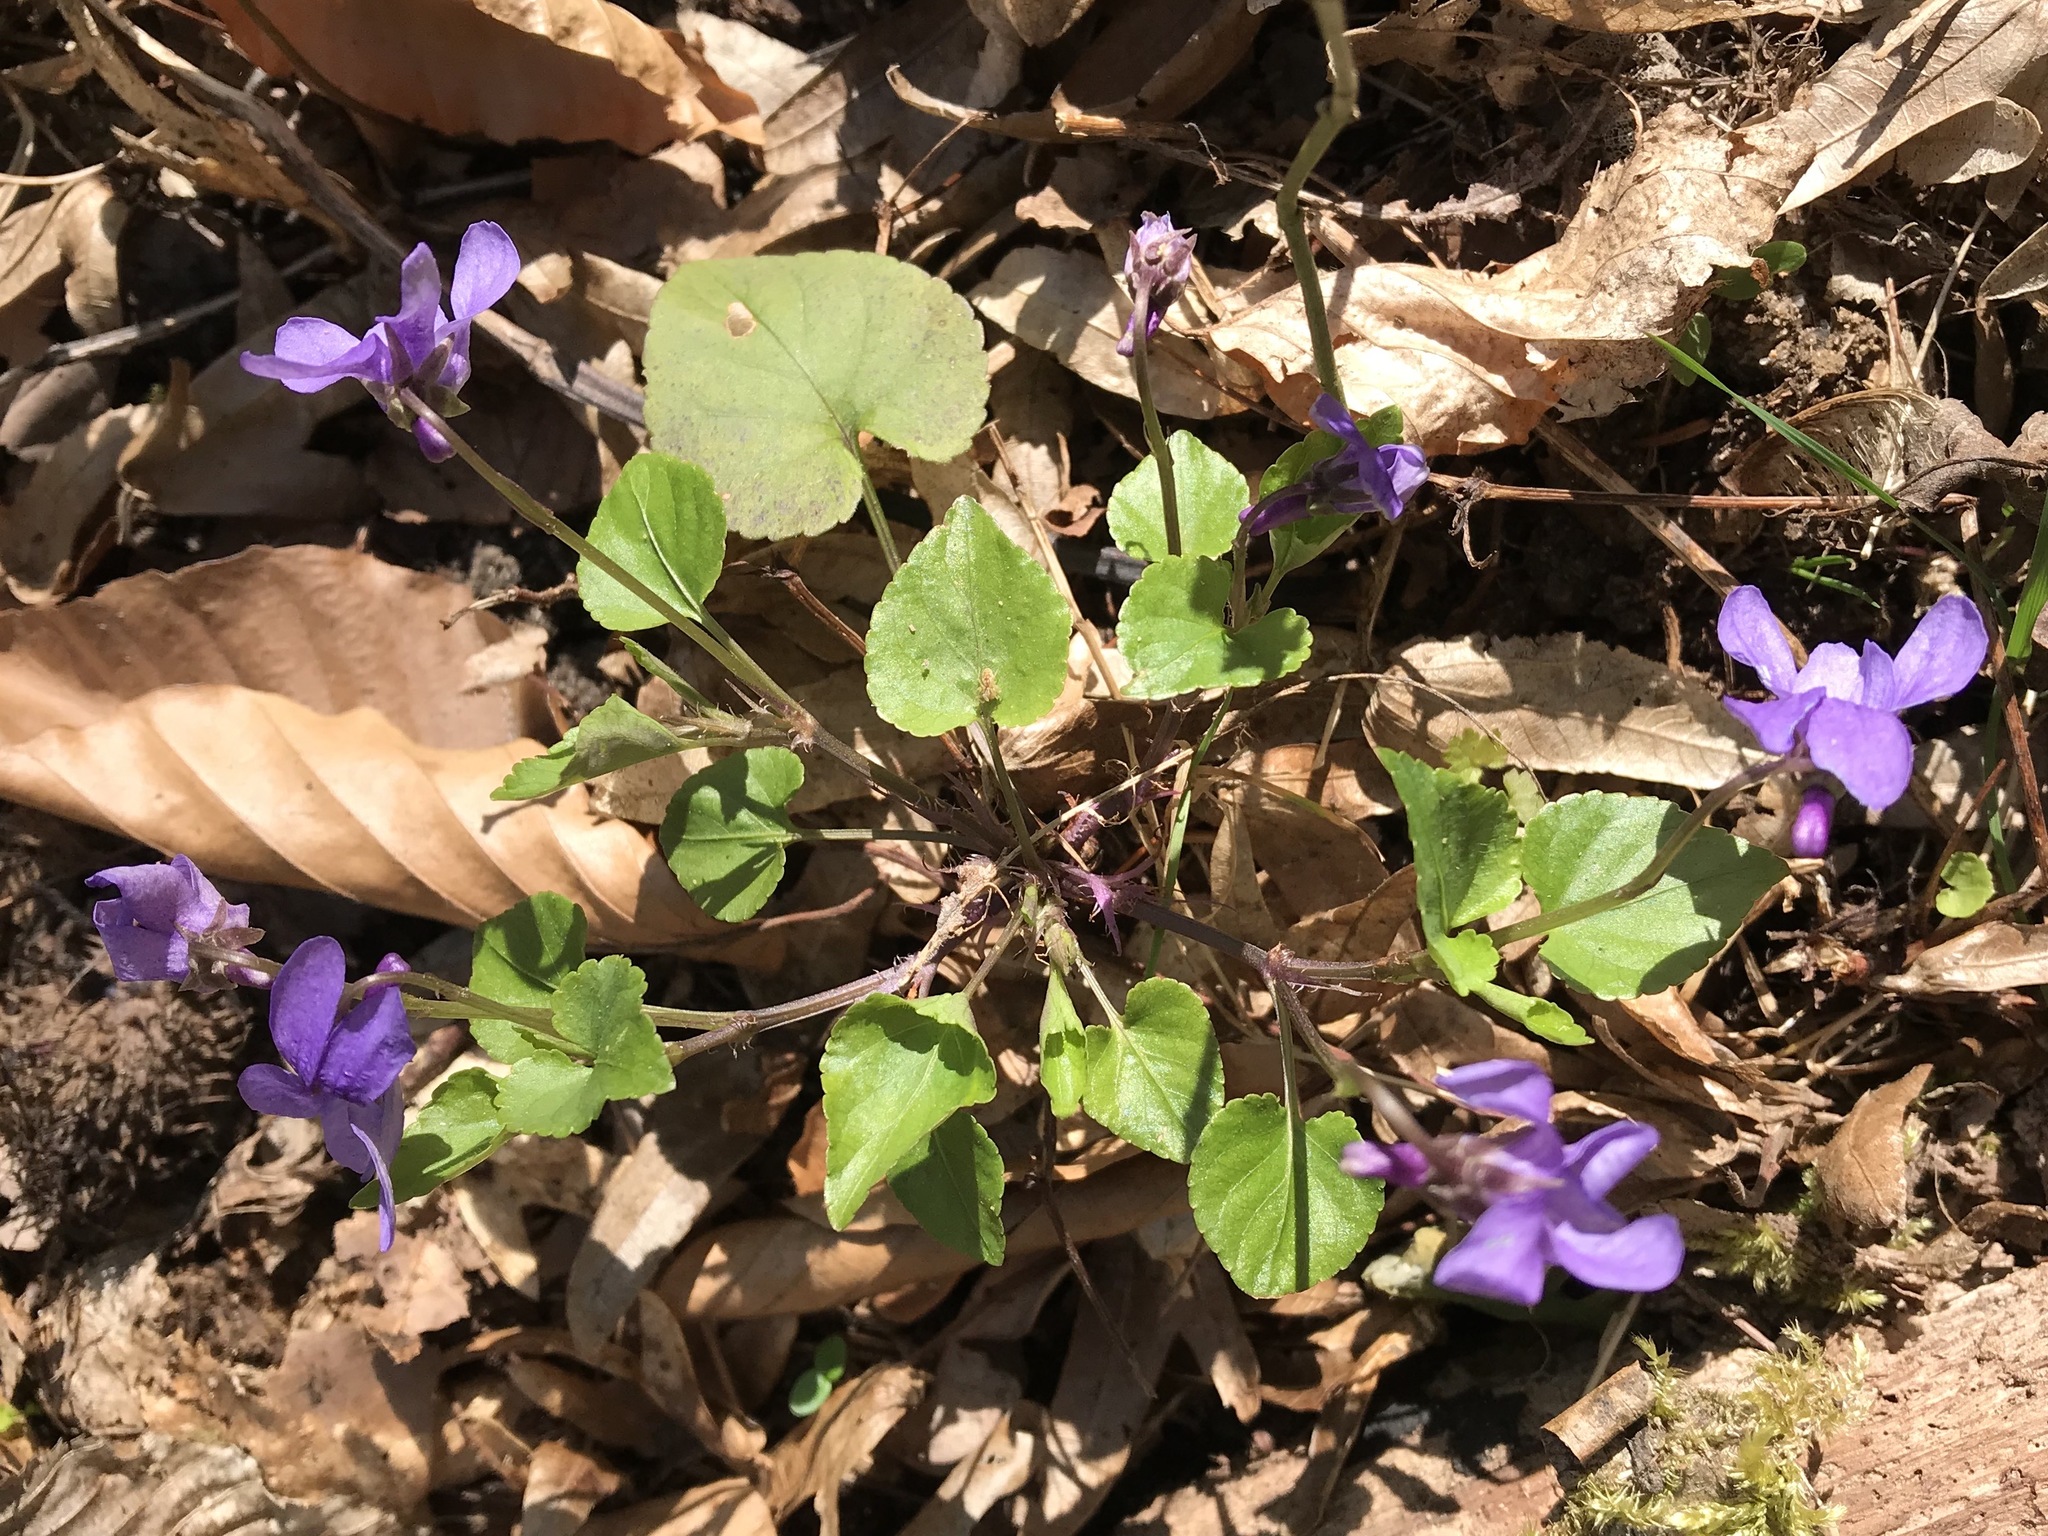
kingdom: Plantae
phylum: Tracheophyta
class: Magnoliopsida
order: Malpighiales
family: Violaceae
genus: Viola
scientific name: Viola reichenbachiana
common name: Early dog-violet
